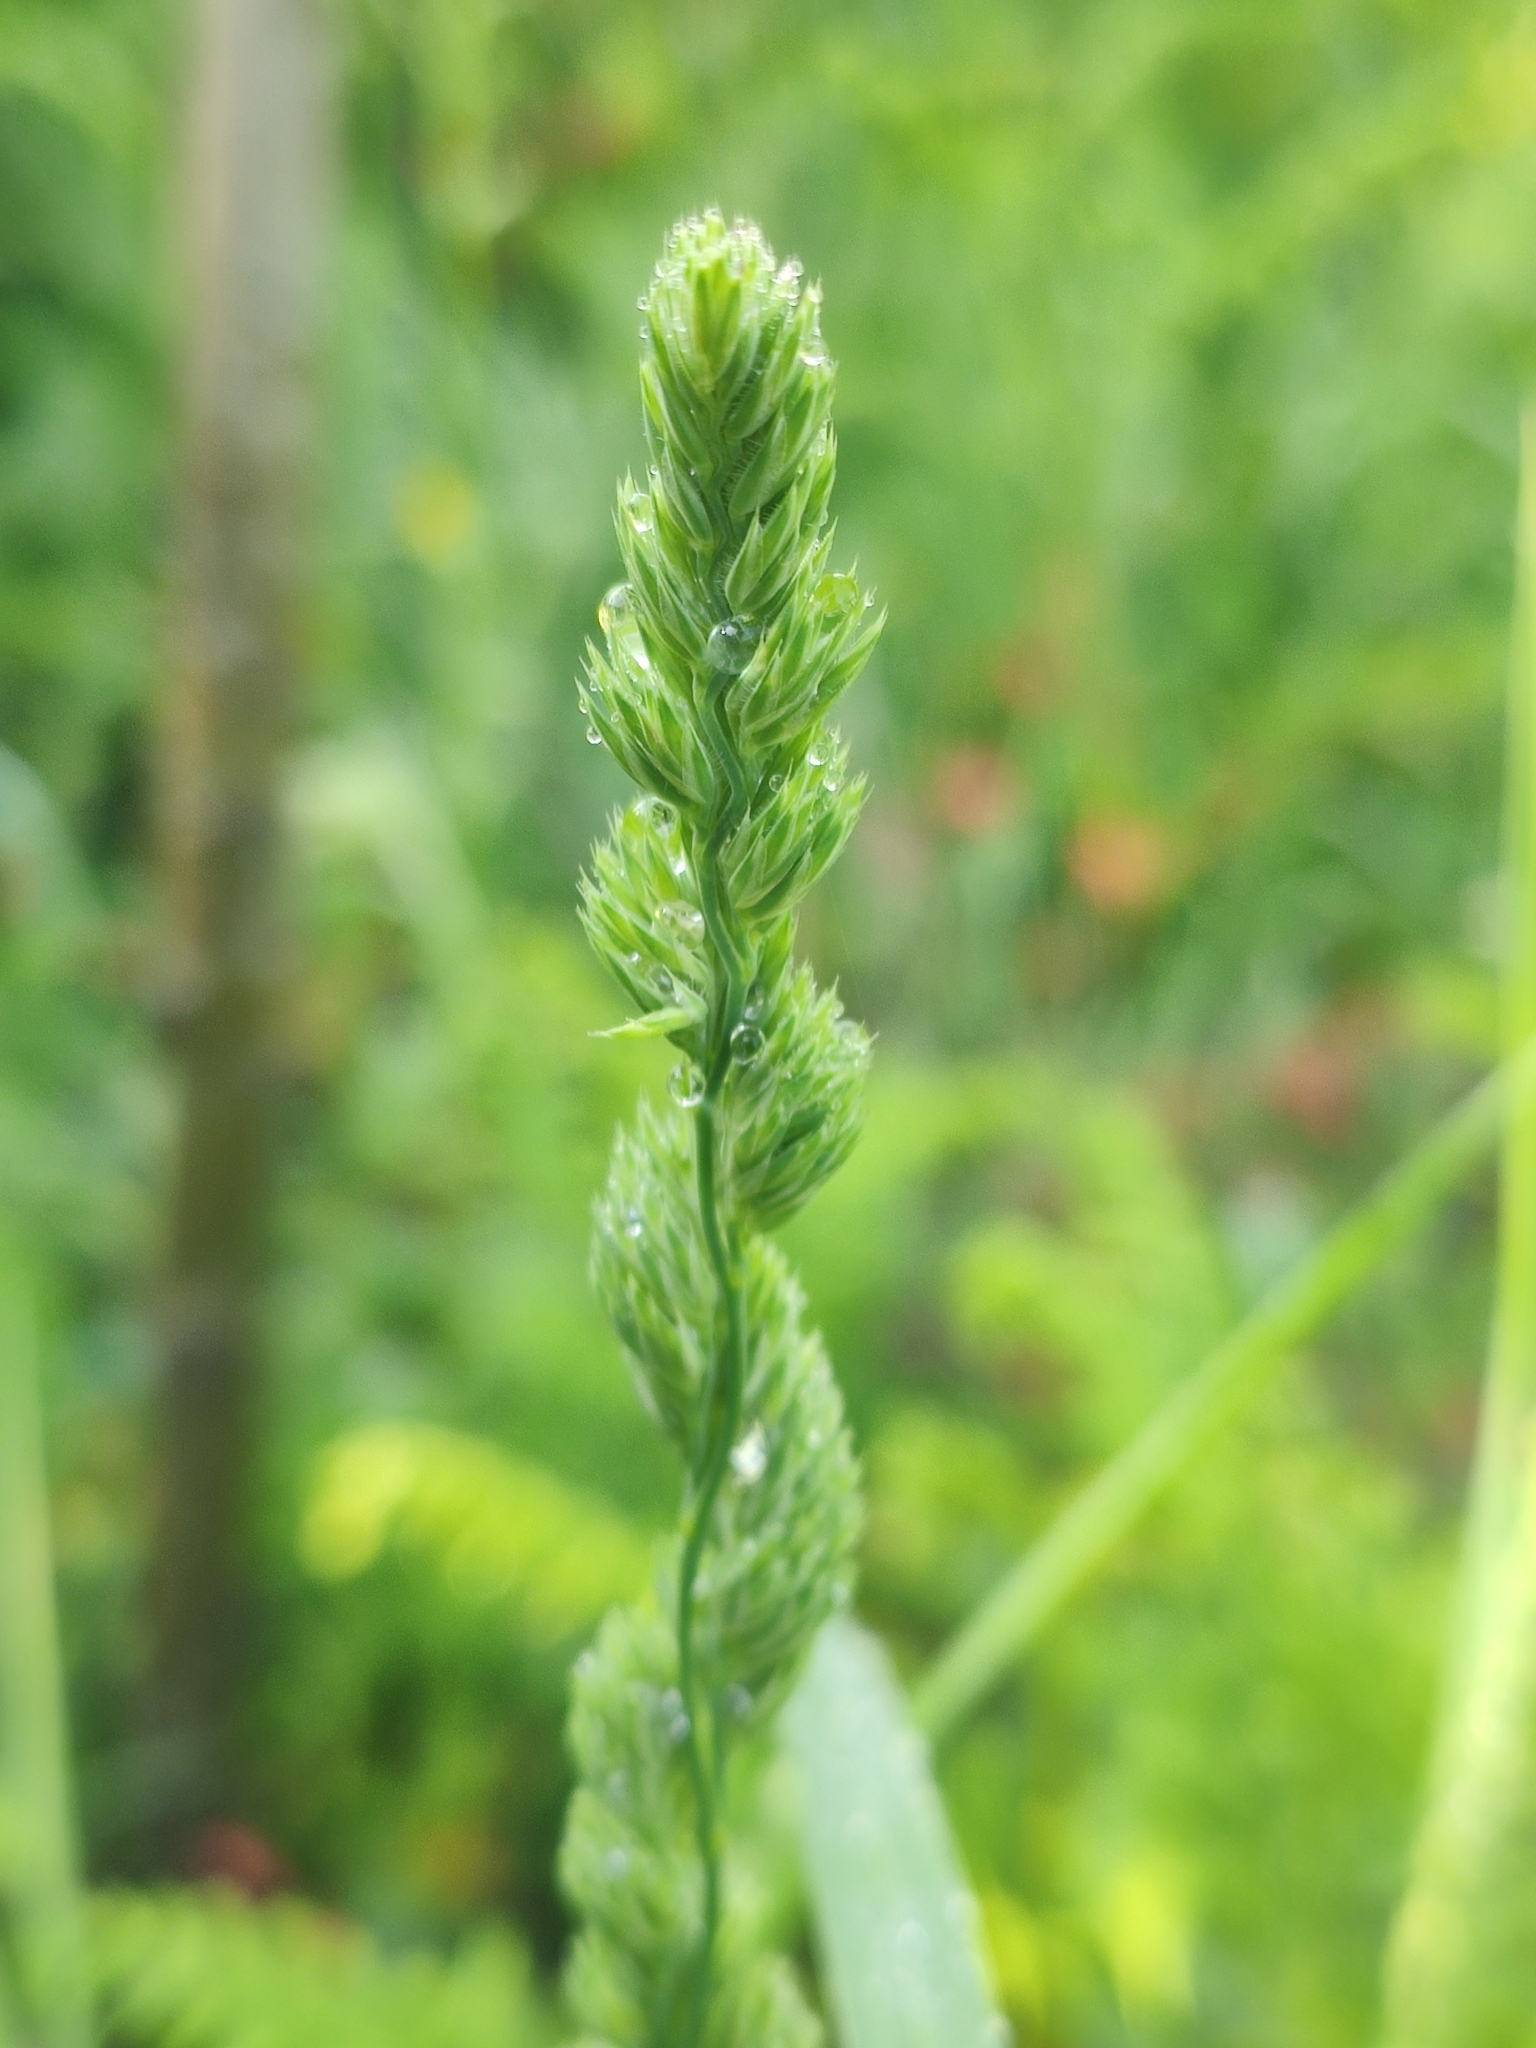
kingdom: Plantae
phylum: Tracheophyta
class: Liliopsida
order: Poales
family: Poaceae
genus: Dactylis
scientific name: Dactylis glomerata
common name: Orchardgrass
